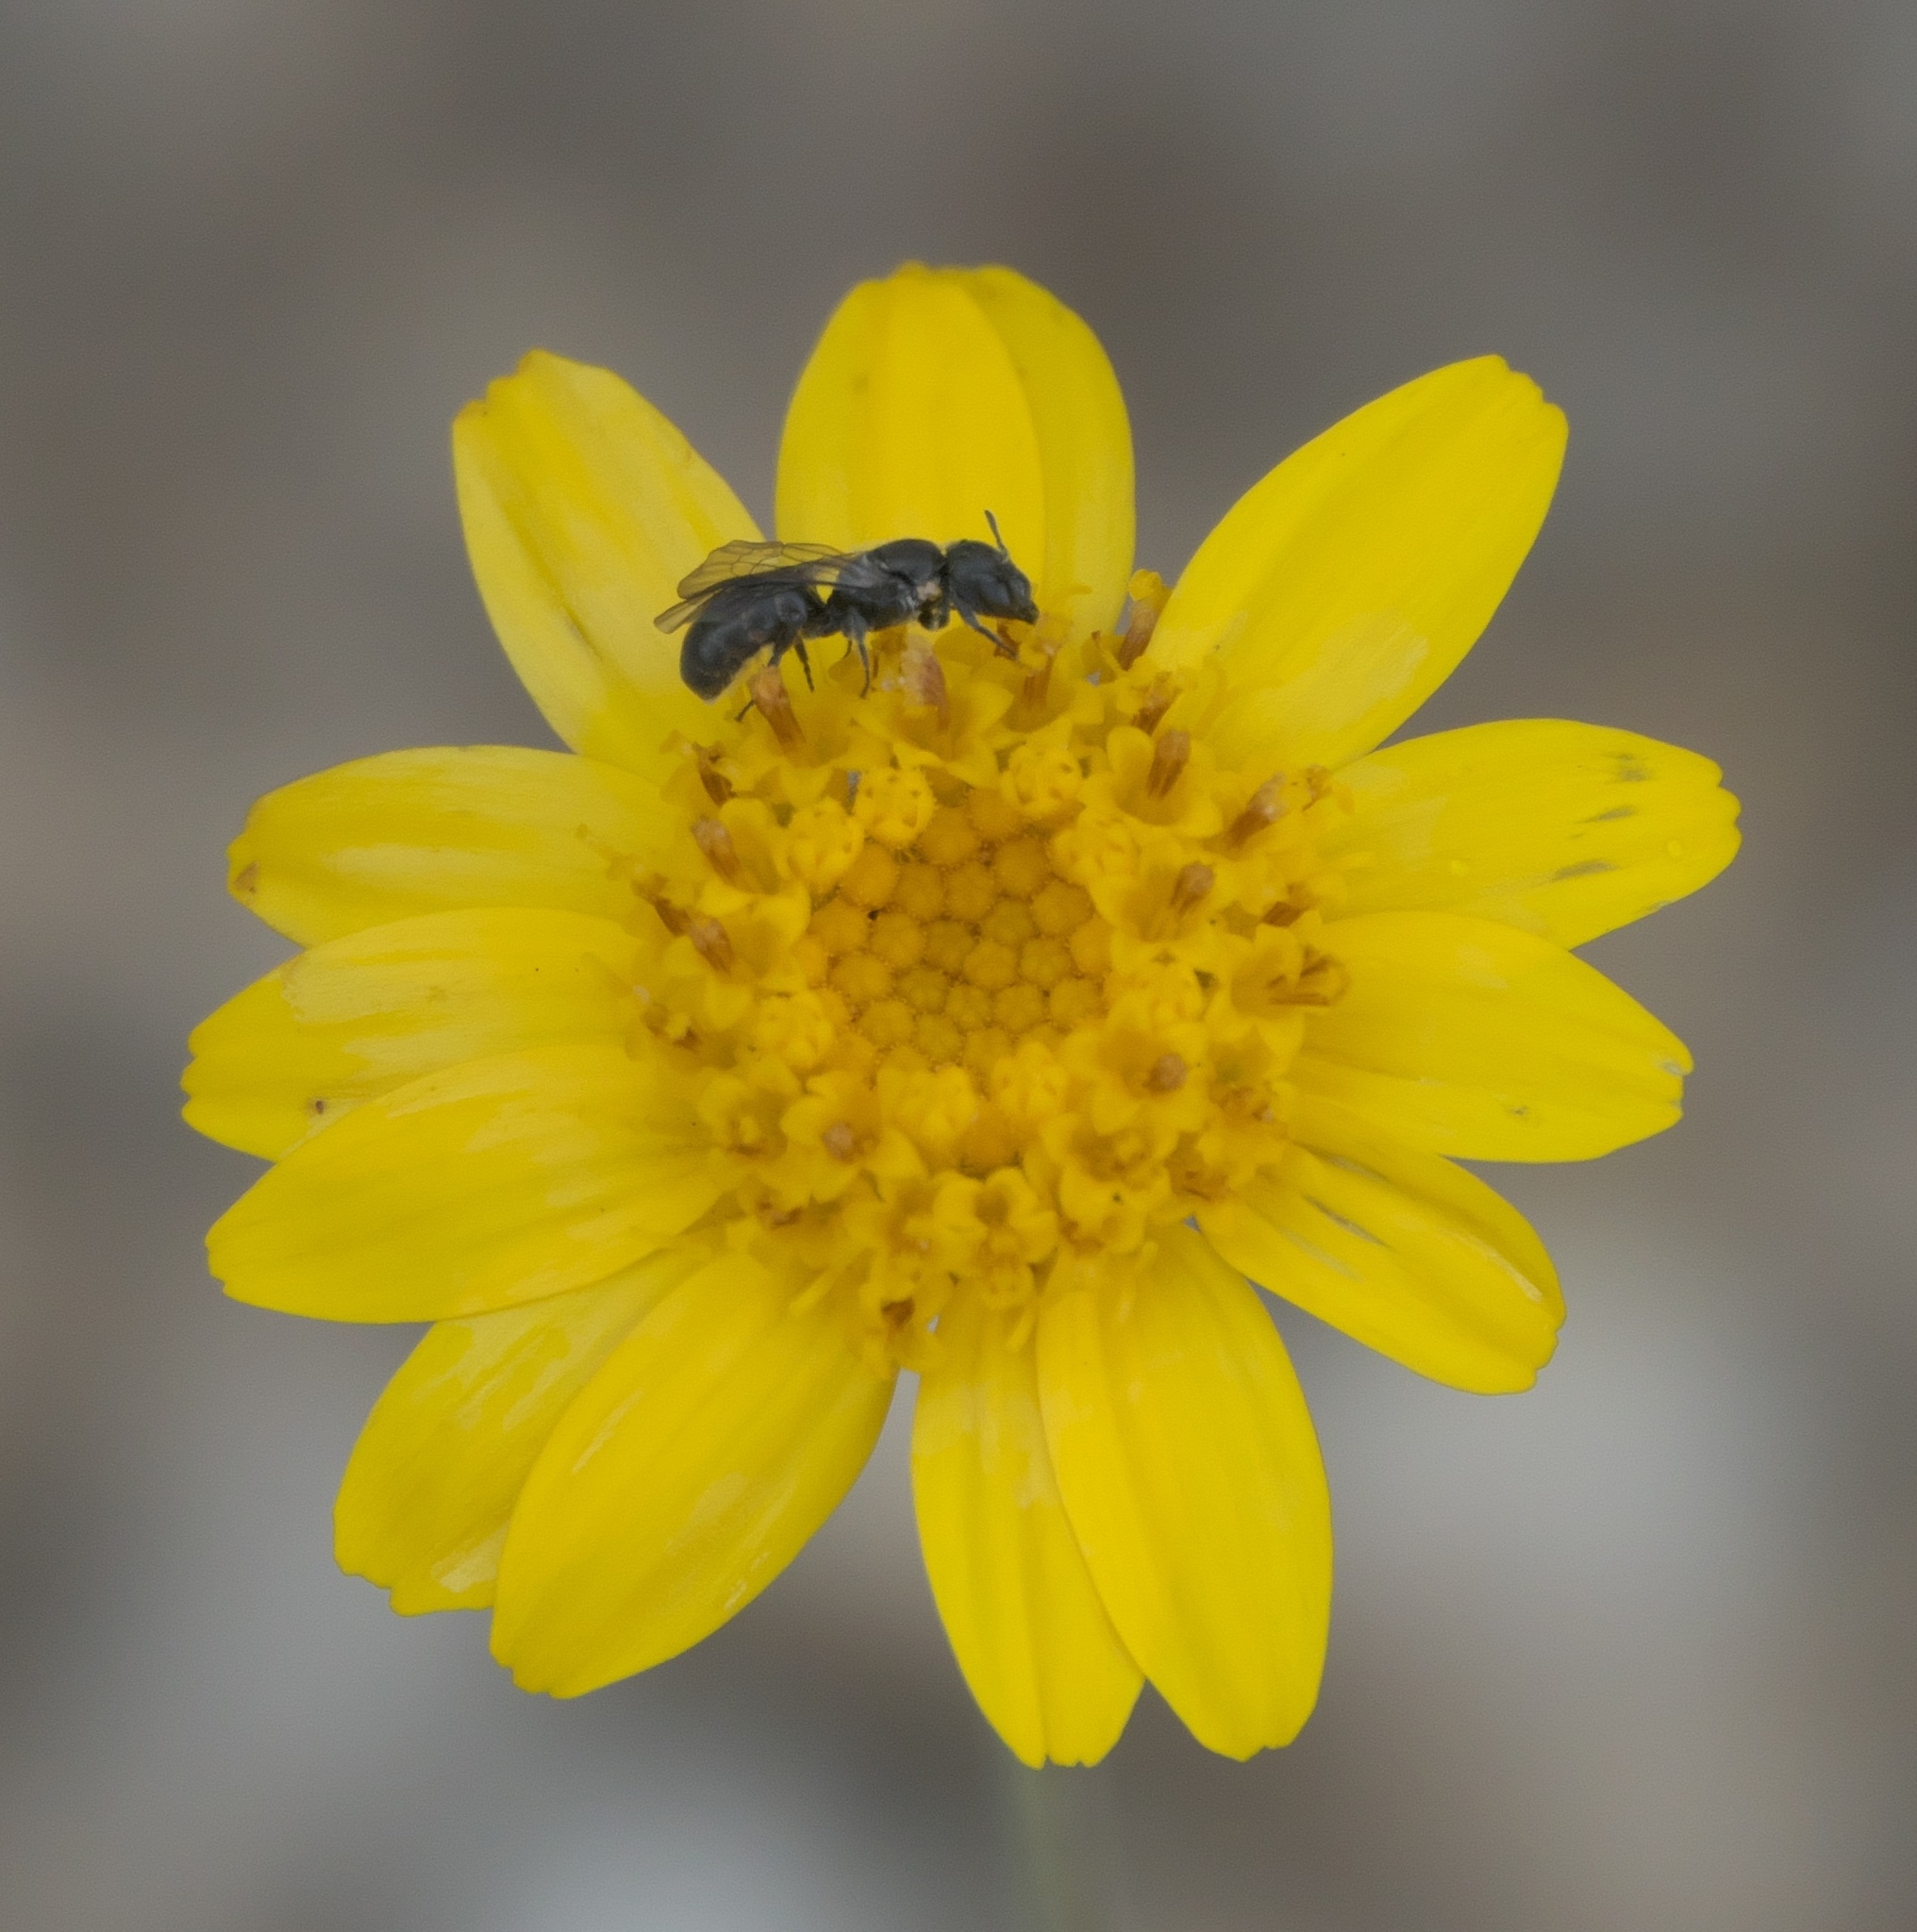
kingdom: Animalia
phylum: Arthropoda
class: Insecta
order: Hymenoptera
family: Apidae
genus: Zadontomerus
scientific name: Zadontomerus
